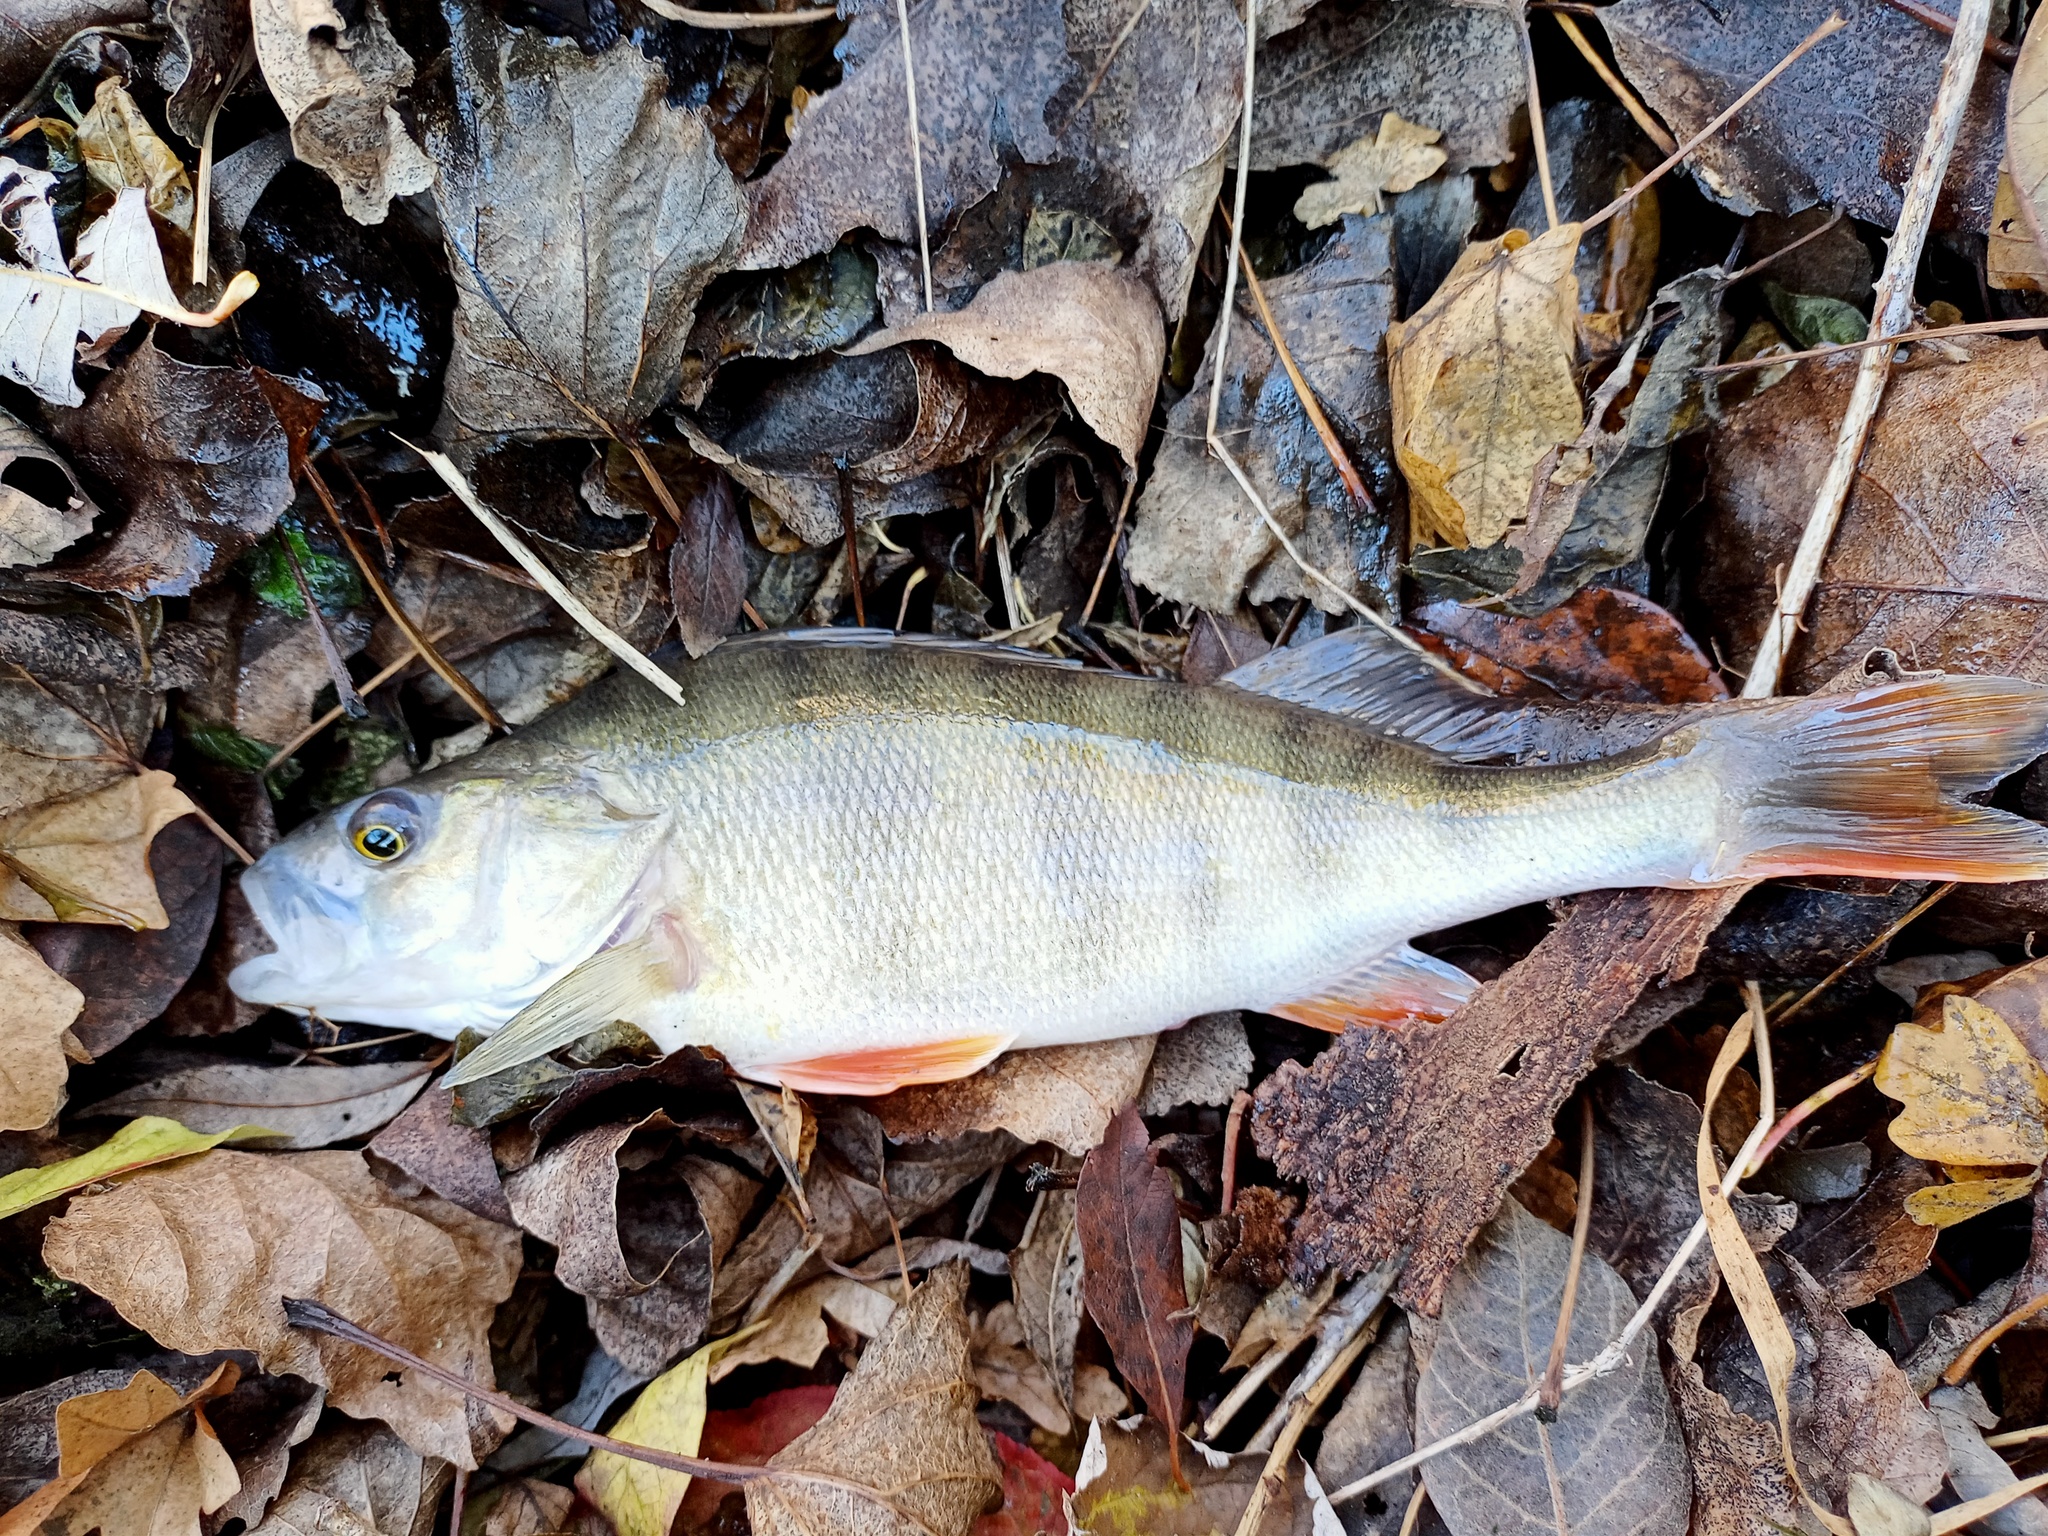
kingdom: Animalia
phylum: Chordata
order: Perciformes
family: Percidae
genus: Perca
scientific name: Perca fluviatilis
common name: Perch
